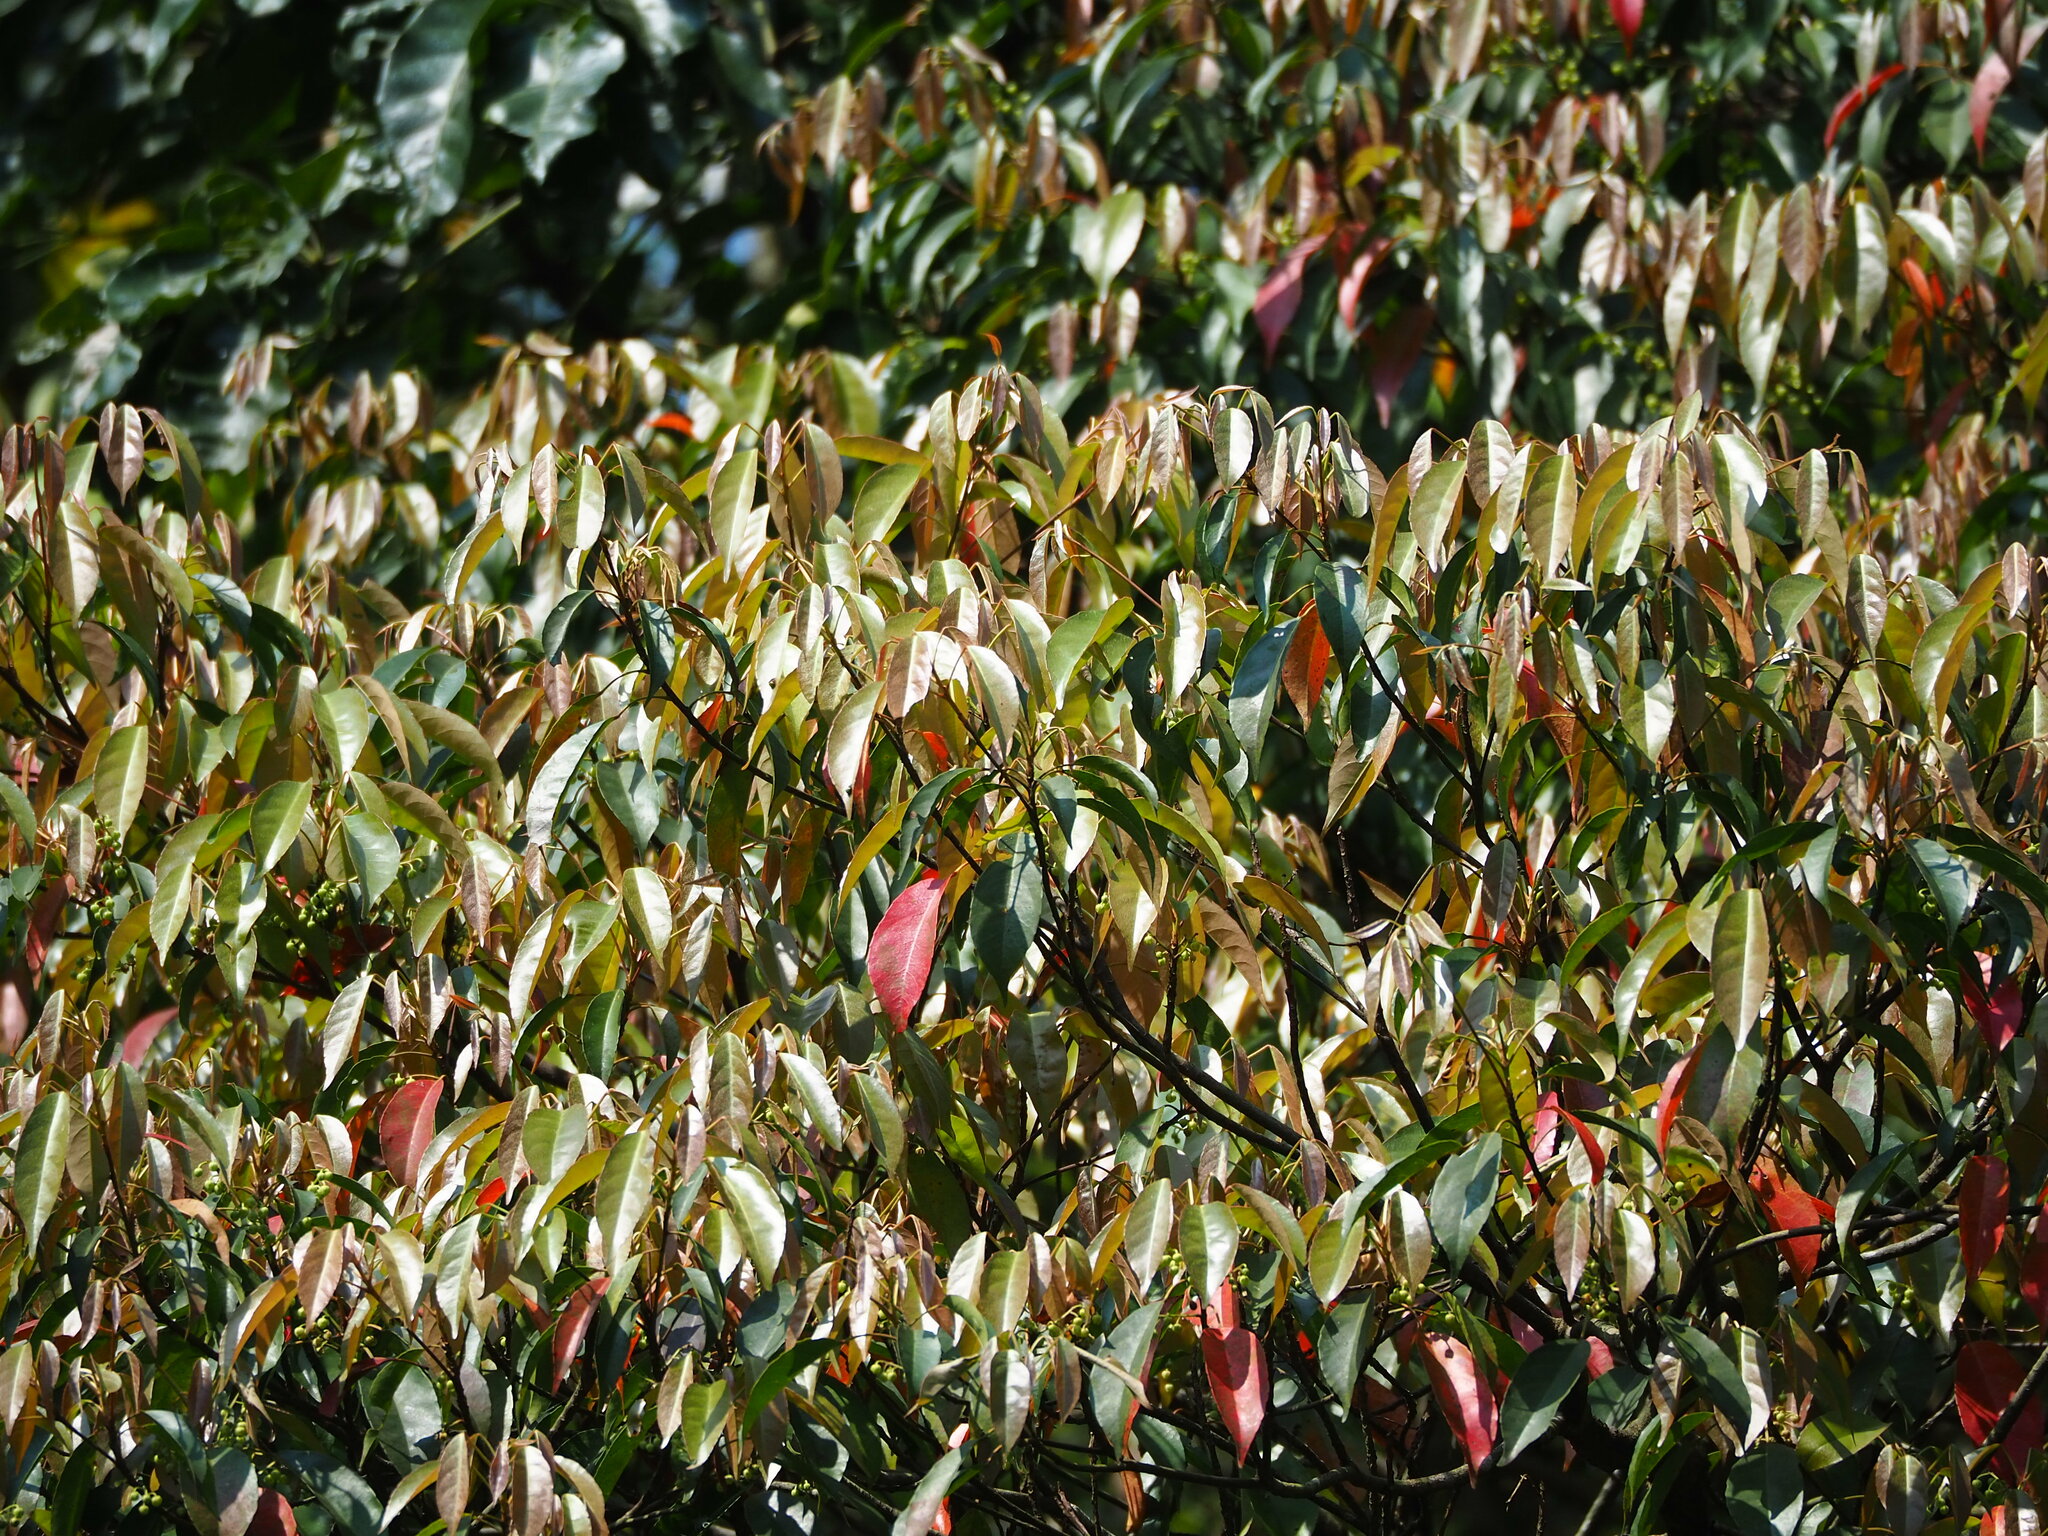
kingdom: Plantae
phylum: Tracheophyta
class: Magnoliopsida
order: Oxalidales
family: Elaeocarpaceae
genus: Elaeocarpus
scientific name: Elaeocarpus japonicus
